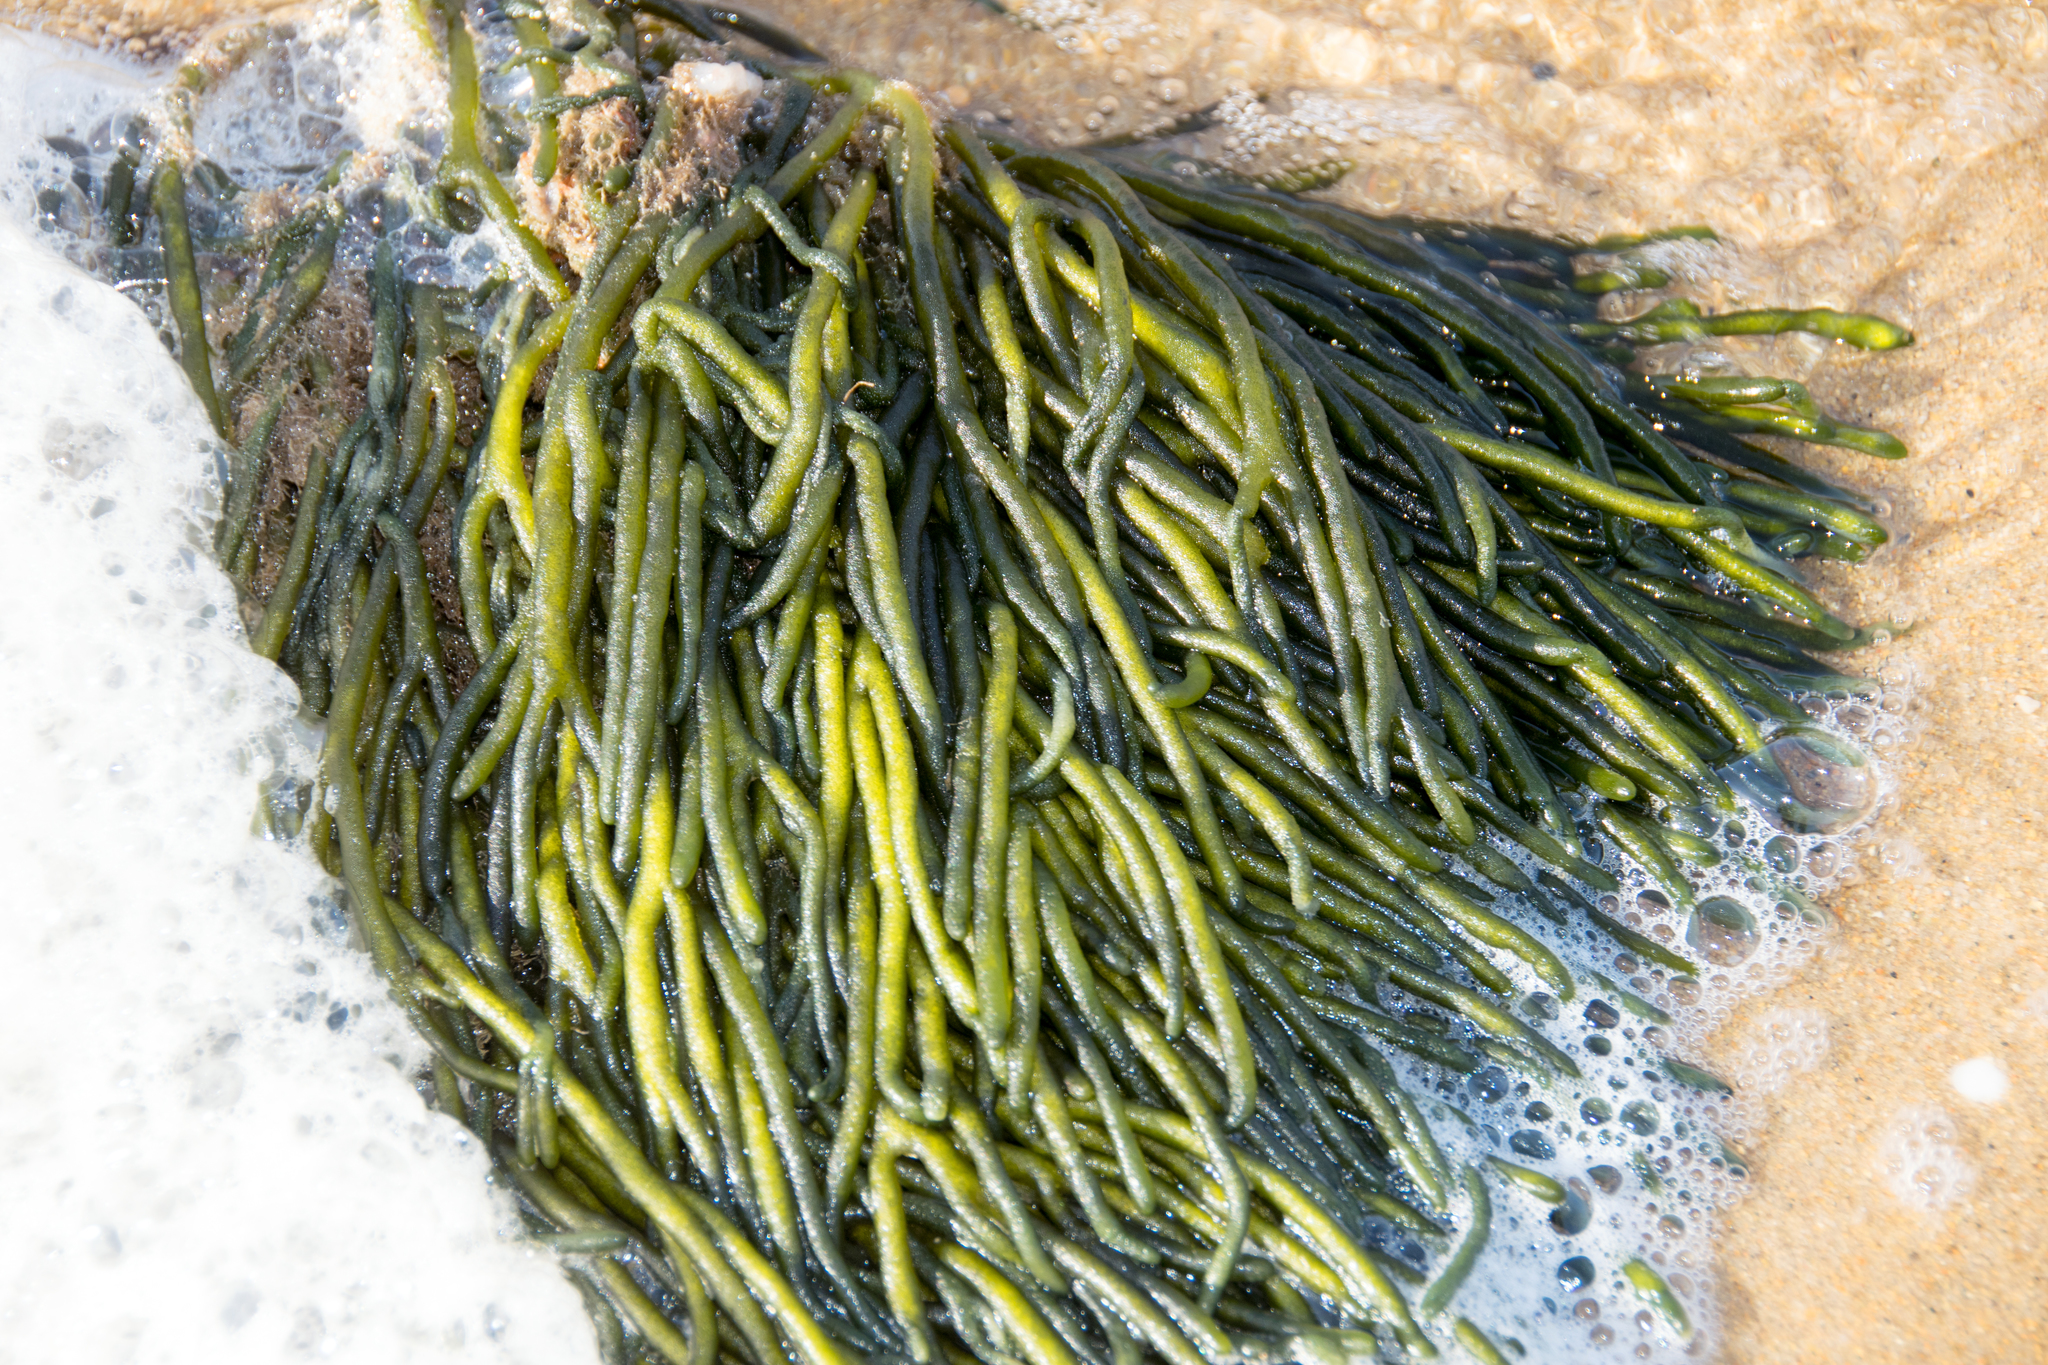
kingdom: Plantae
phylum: Chlorophyta
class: Ulvophyceae
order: Bryopsidales
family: Codiaceae
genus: Codium
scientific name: Codium fragile
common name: Dead man's fingers
